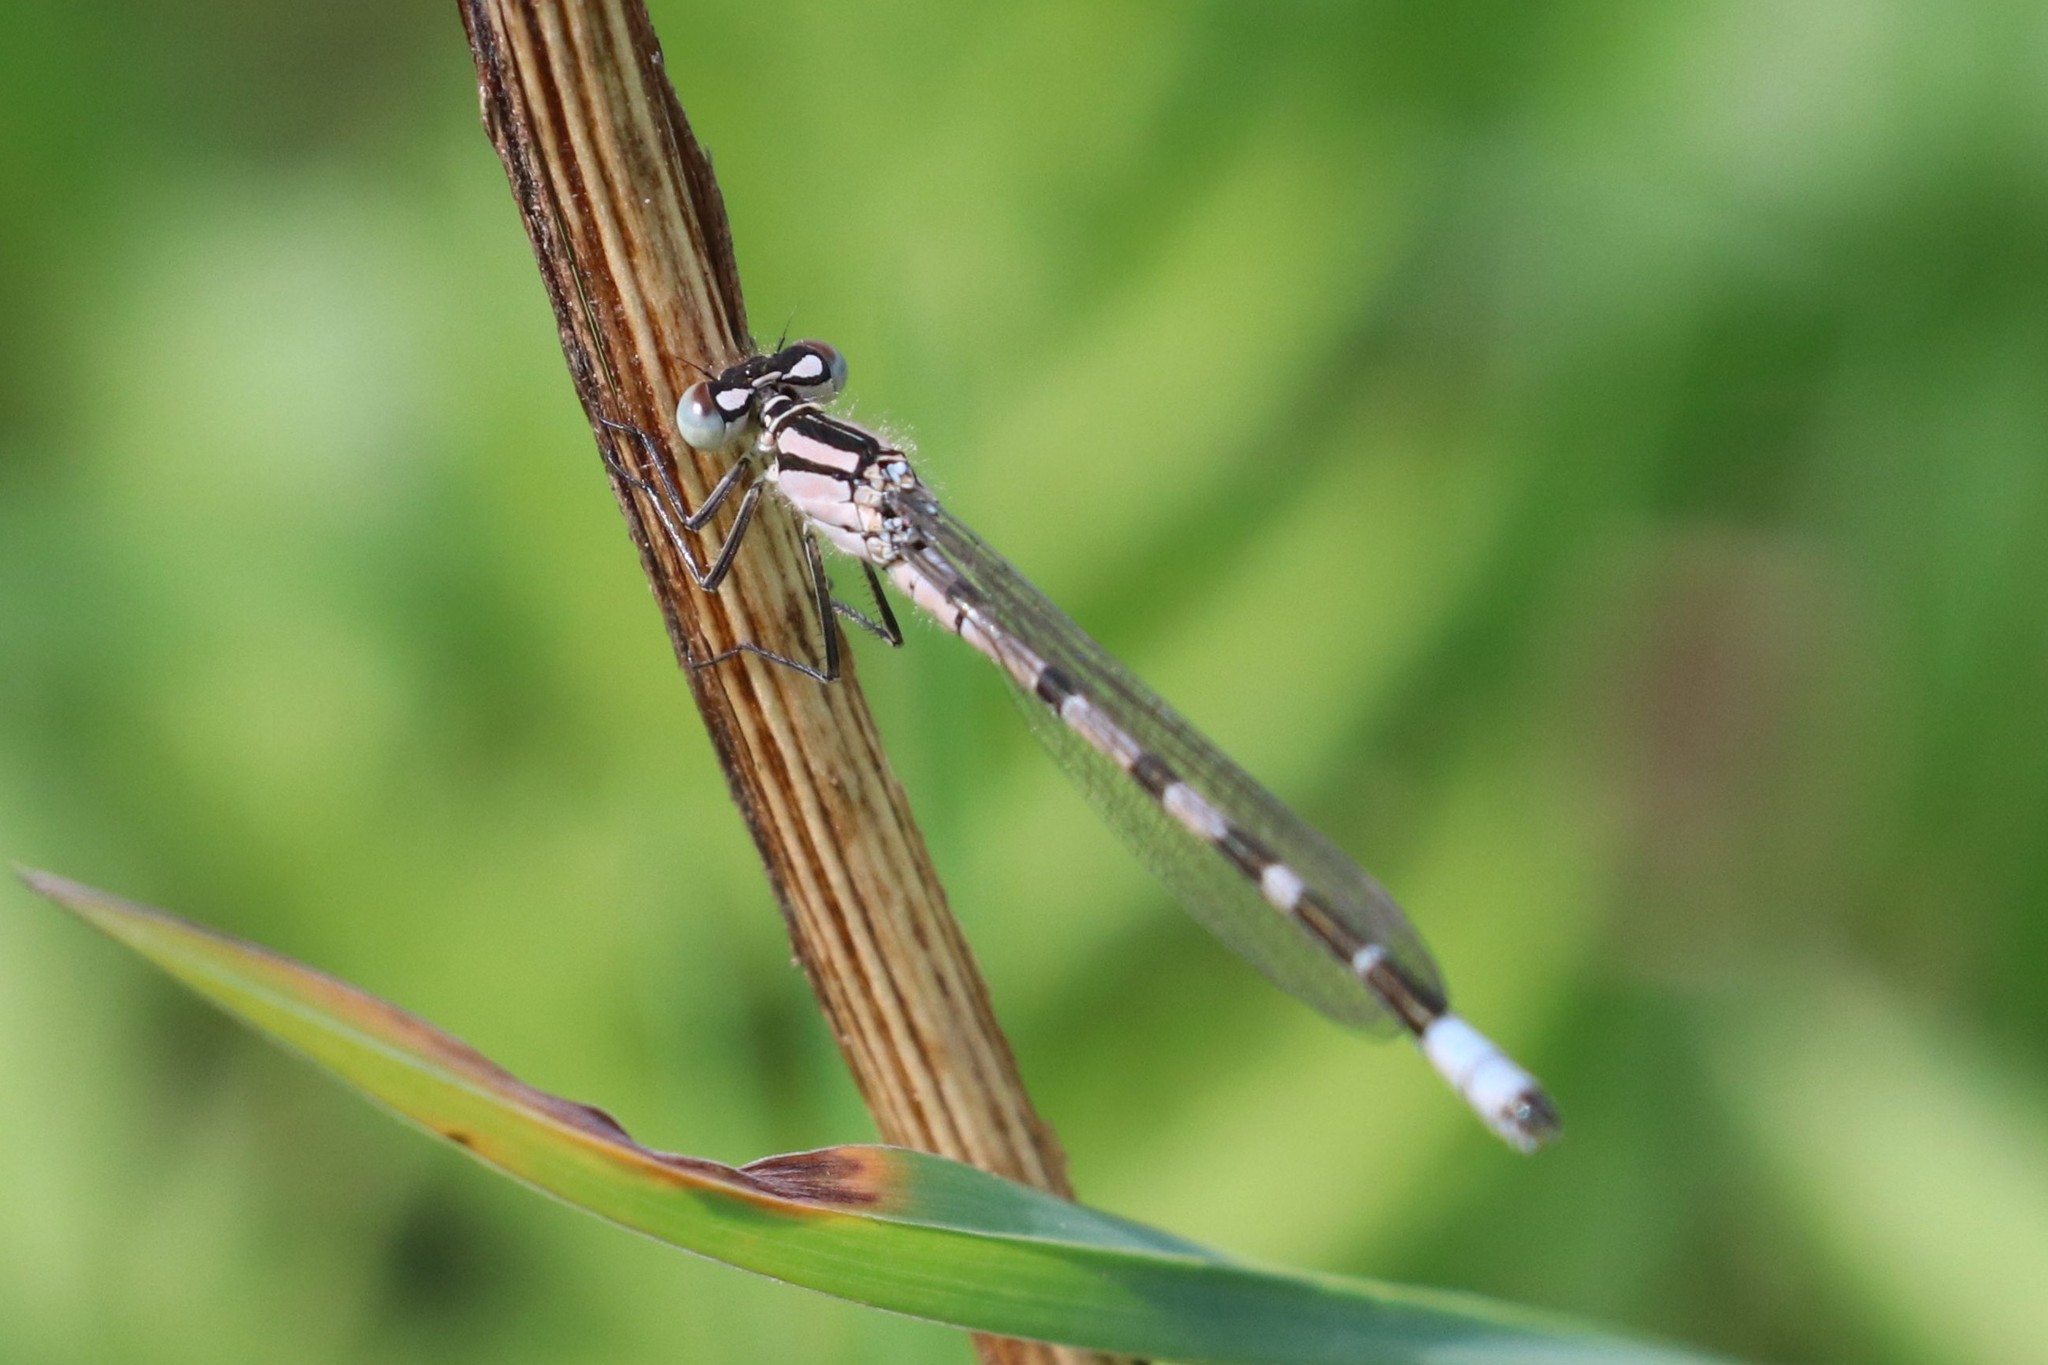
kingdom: Animalia
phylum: Arthropoda
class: Insecta
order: Odonata
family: Coenagrionidae
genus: Enallagma
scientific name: Enallagma cyathigerum
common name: Common blue damselfly
